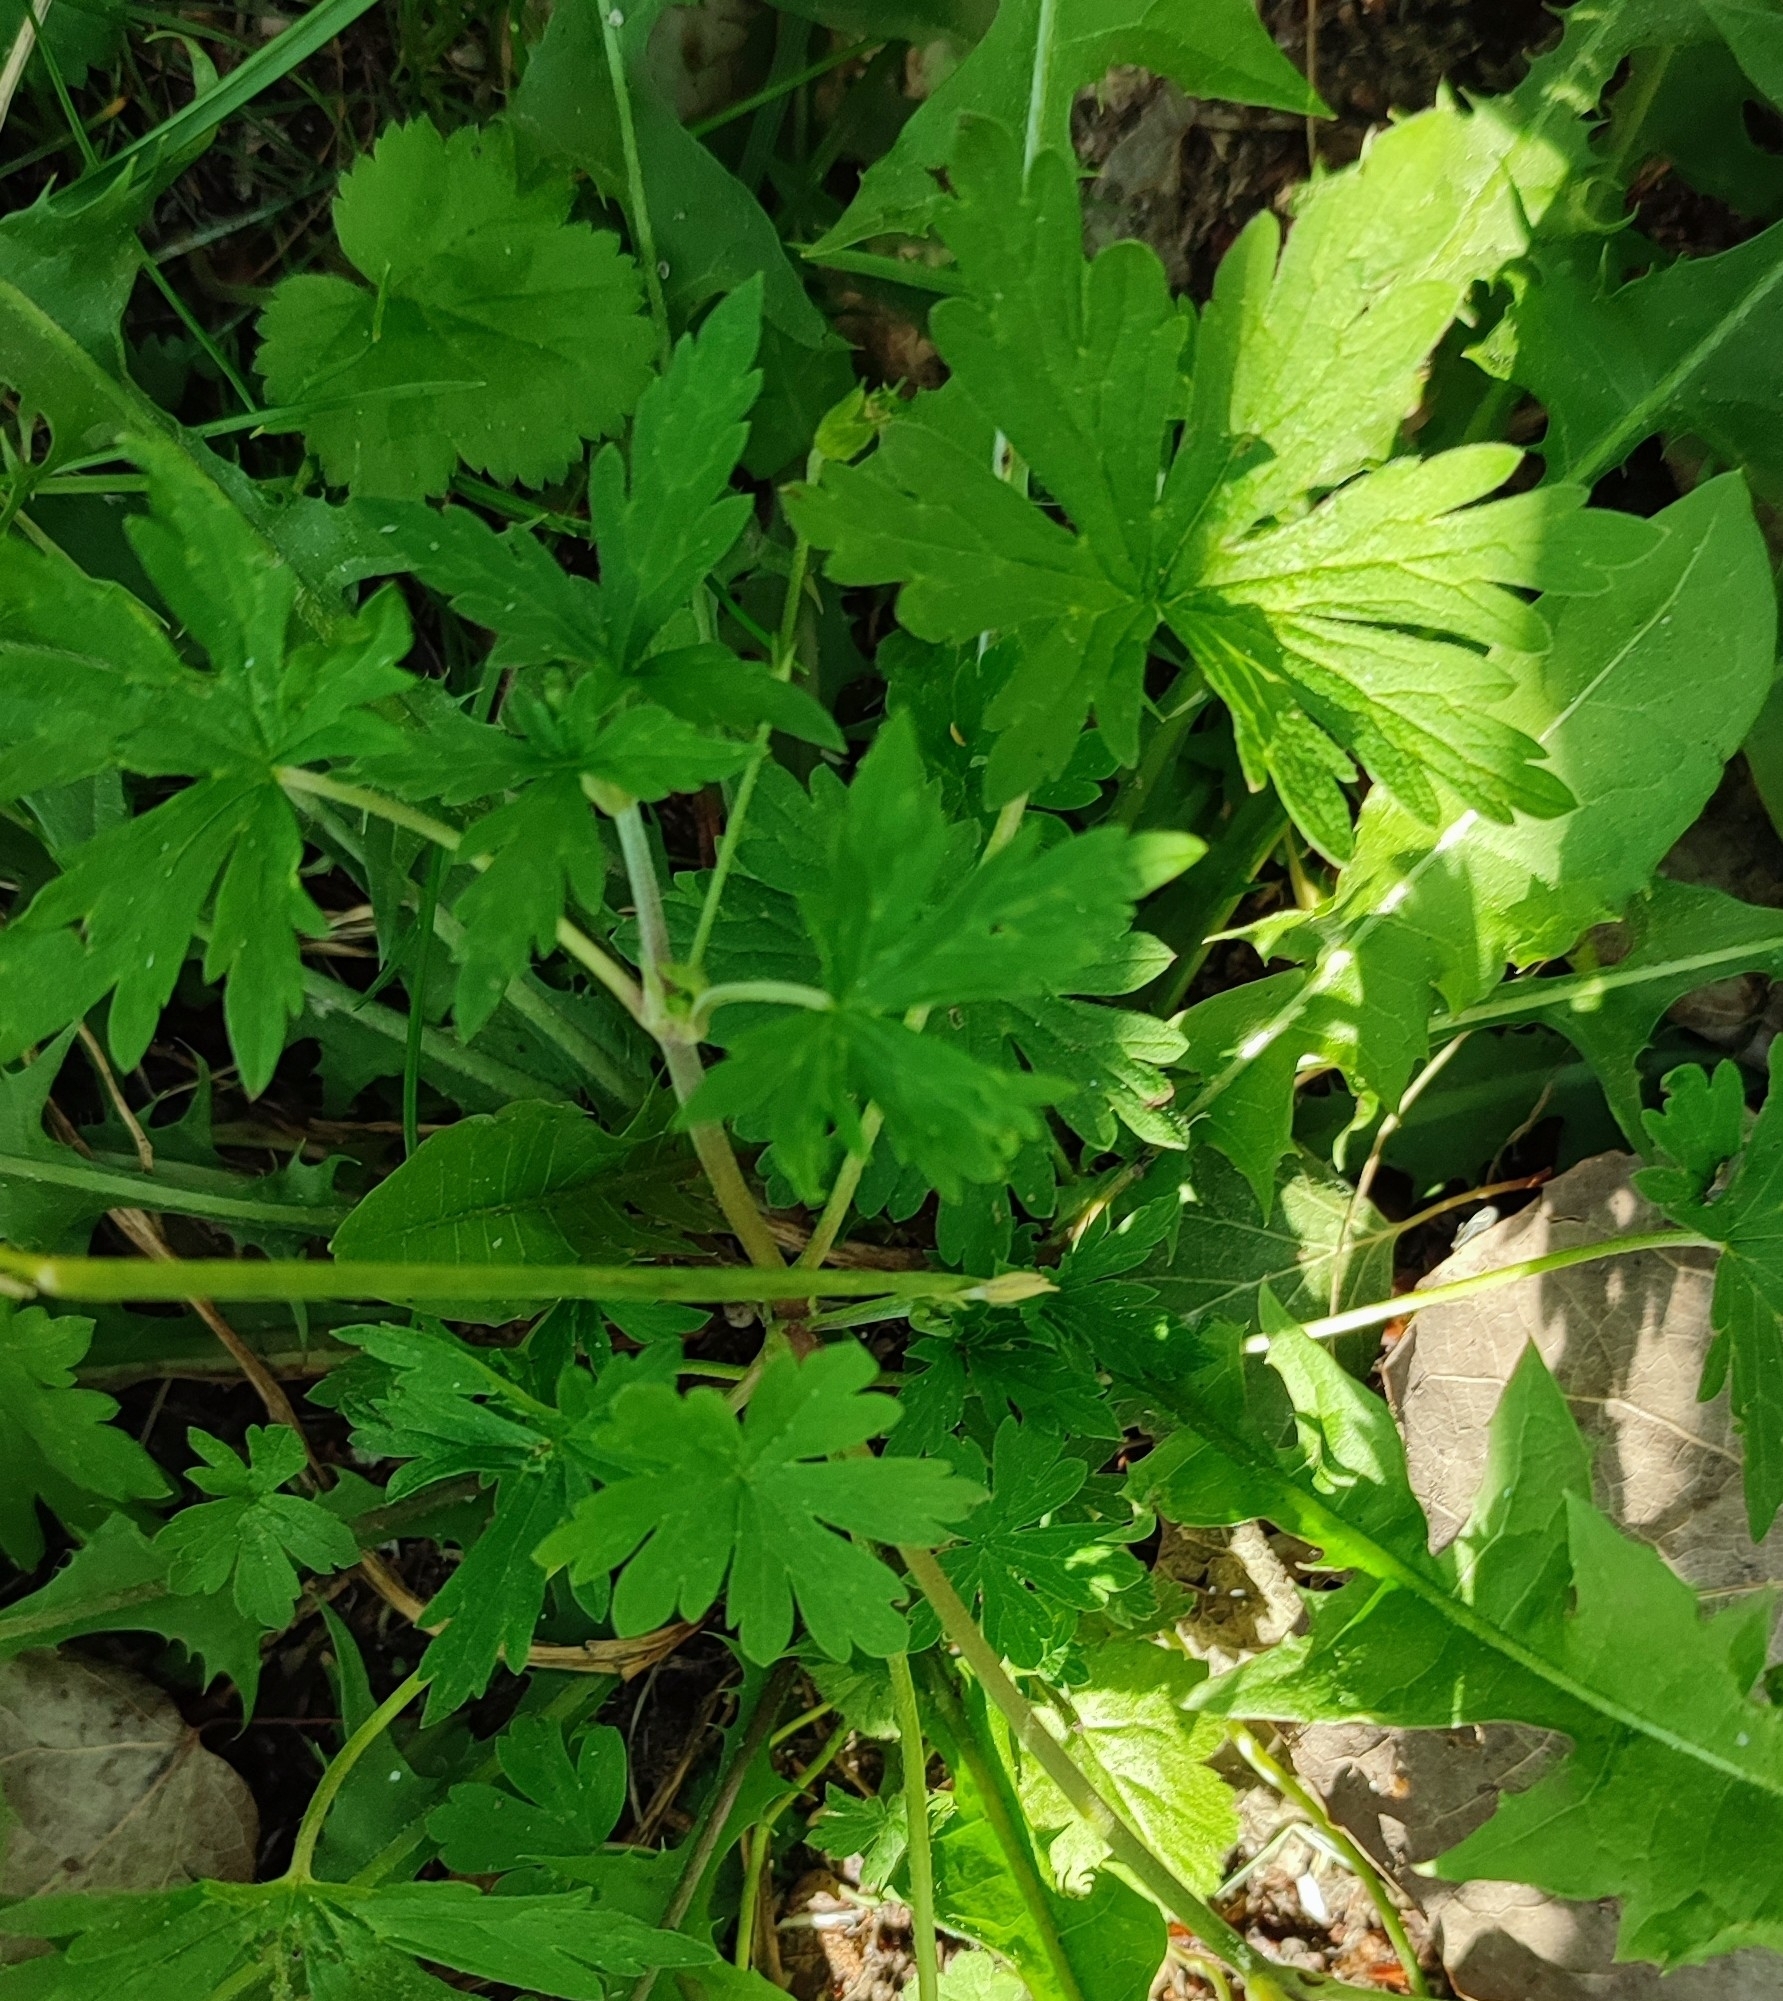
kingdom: Plantae
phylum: Tracheophyta
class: Magnoliopsida
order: Geraniales
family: Geraniaceae
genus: Geranium
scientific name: Geranium sibiricum
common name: Siberian crane's-bill
